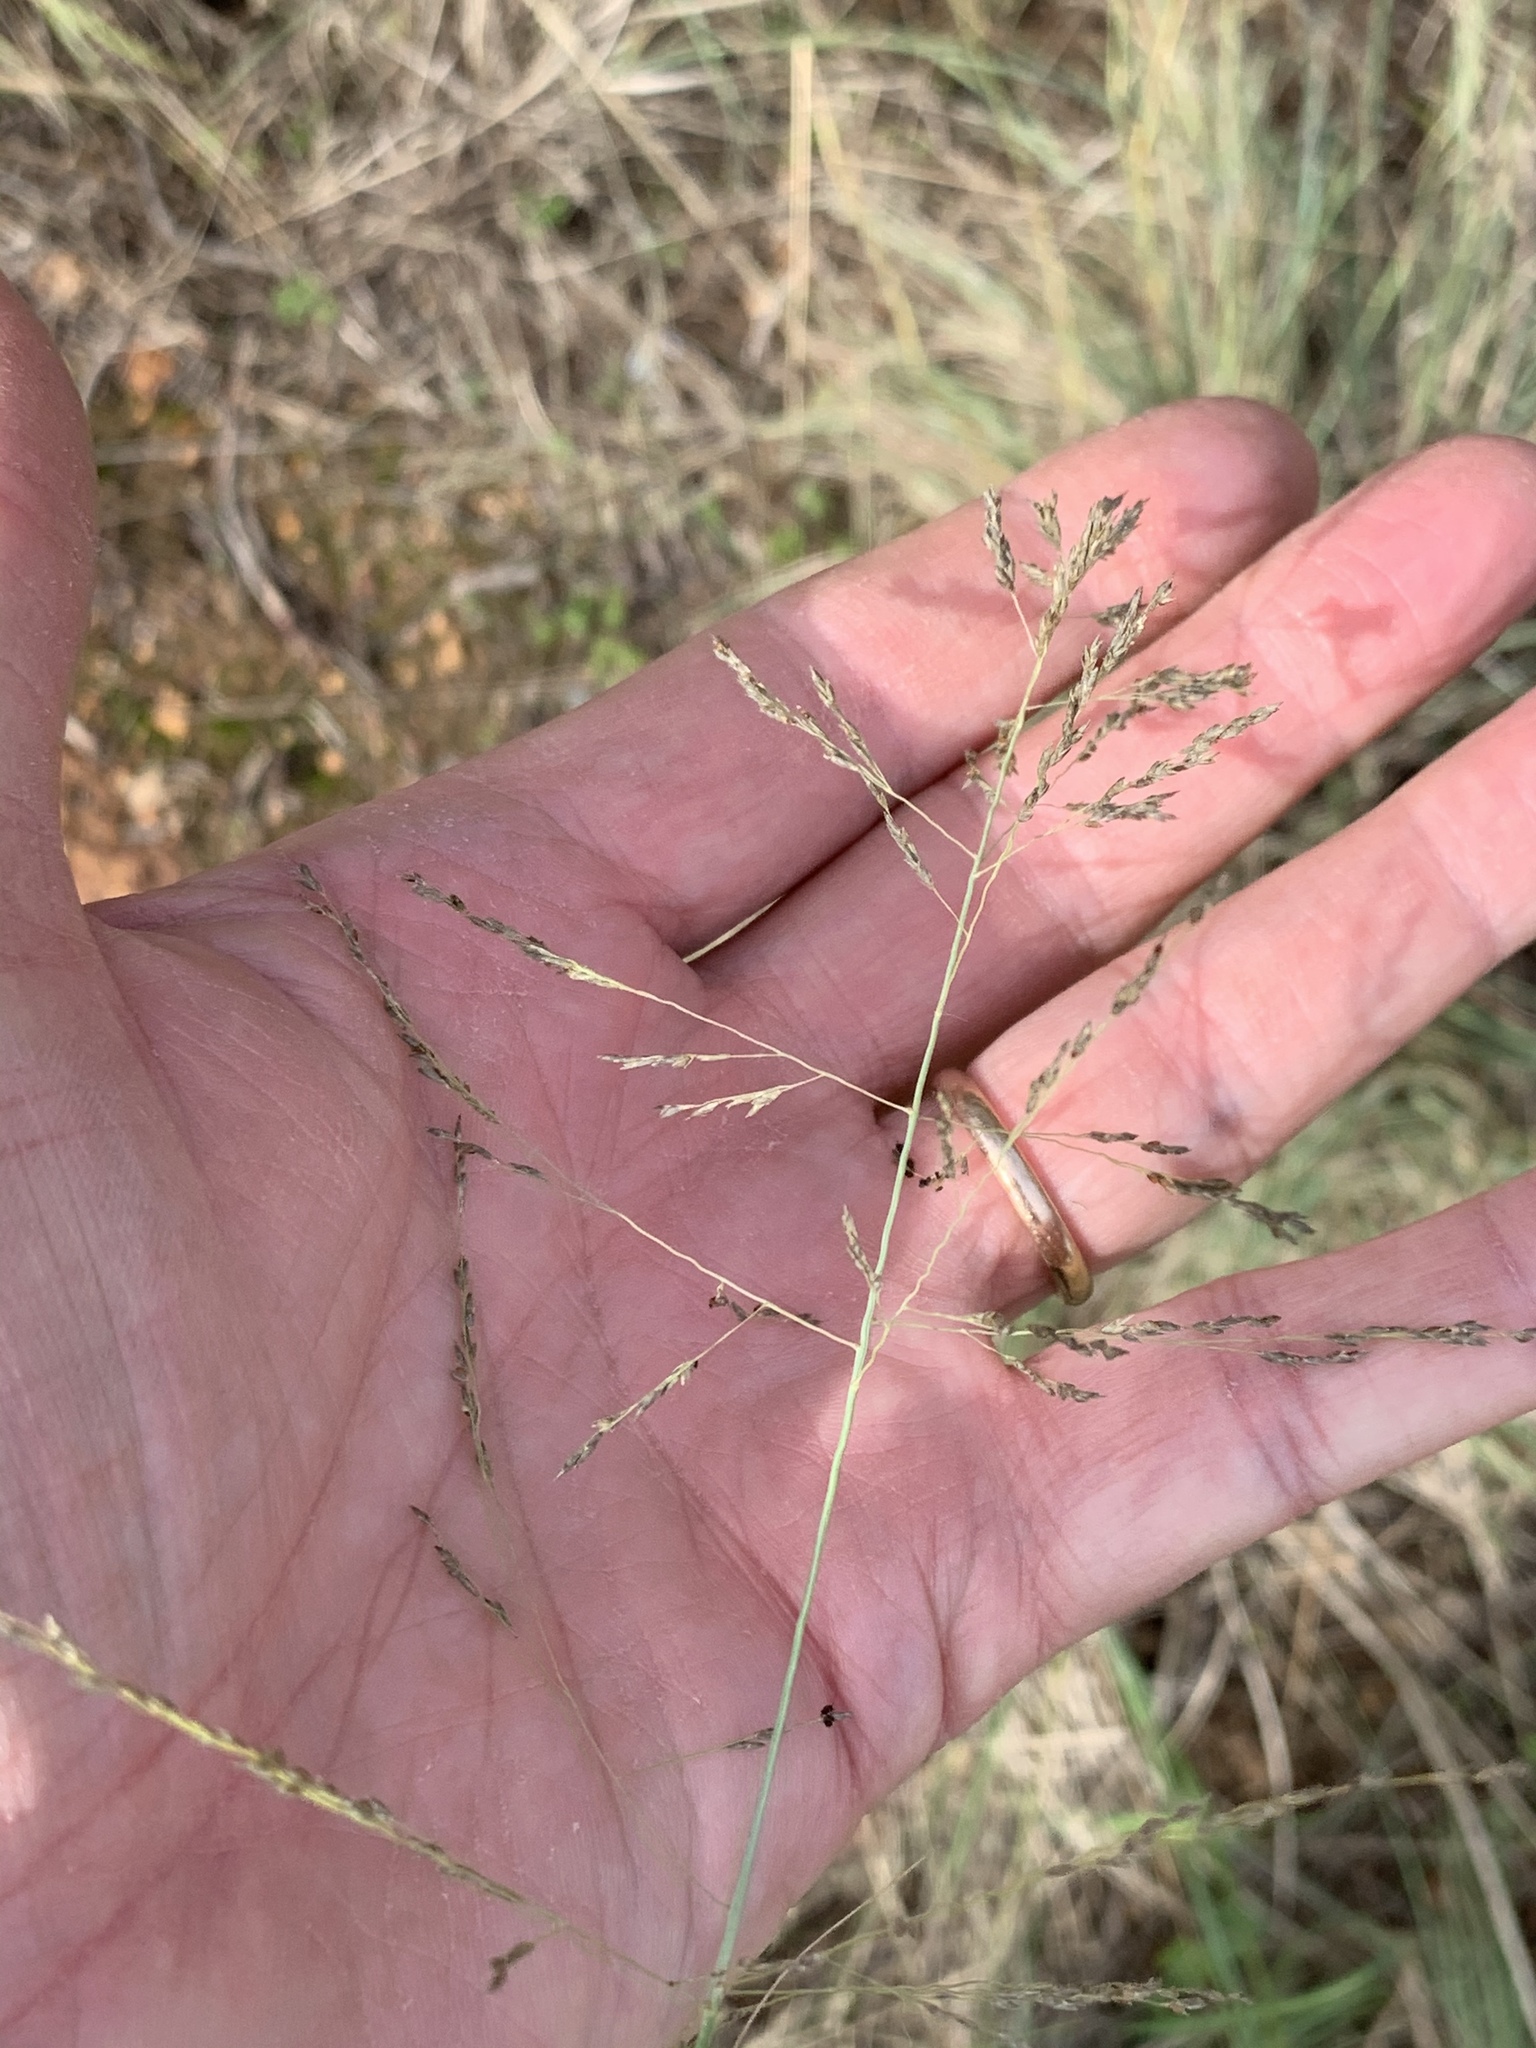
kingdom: Plantae
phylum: Tracheophyta
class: Liliopsida
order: Poales
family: Poaceae
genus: Eragrostis
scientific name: Eragrostis curvula
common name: African love-grass
